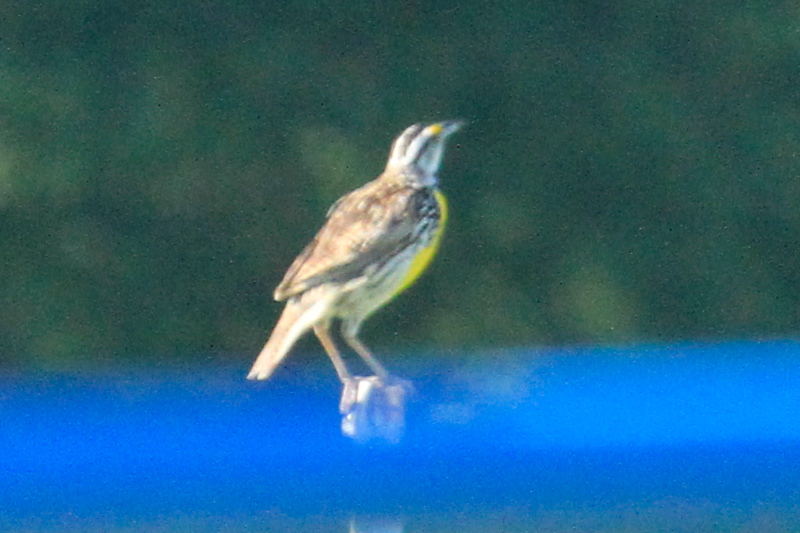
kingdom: Animalia
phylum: Chordata
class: Aves
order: Passeriformes
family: Icteridae
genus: Sturnella
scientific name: Sturnella magna
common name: Eastern meadowlark
